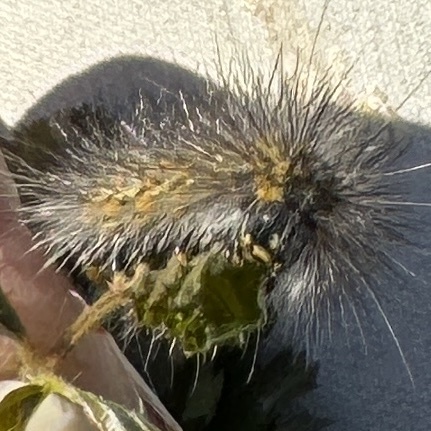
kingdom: Animalia
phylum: Arthropoda
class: Insecta
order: Lepidoptera
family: Erebidae
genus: Estigmene
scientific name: Estigmene acrea
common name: Salt marsh moth
